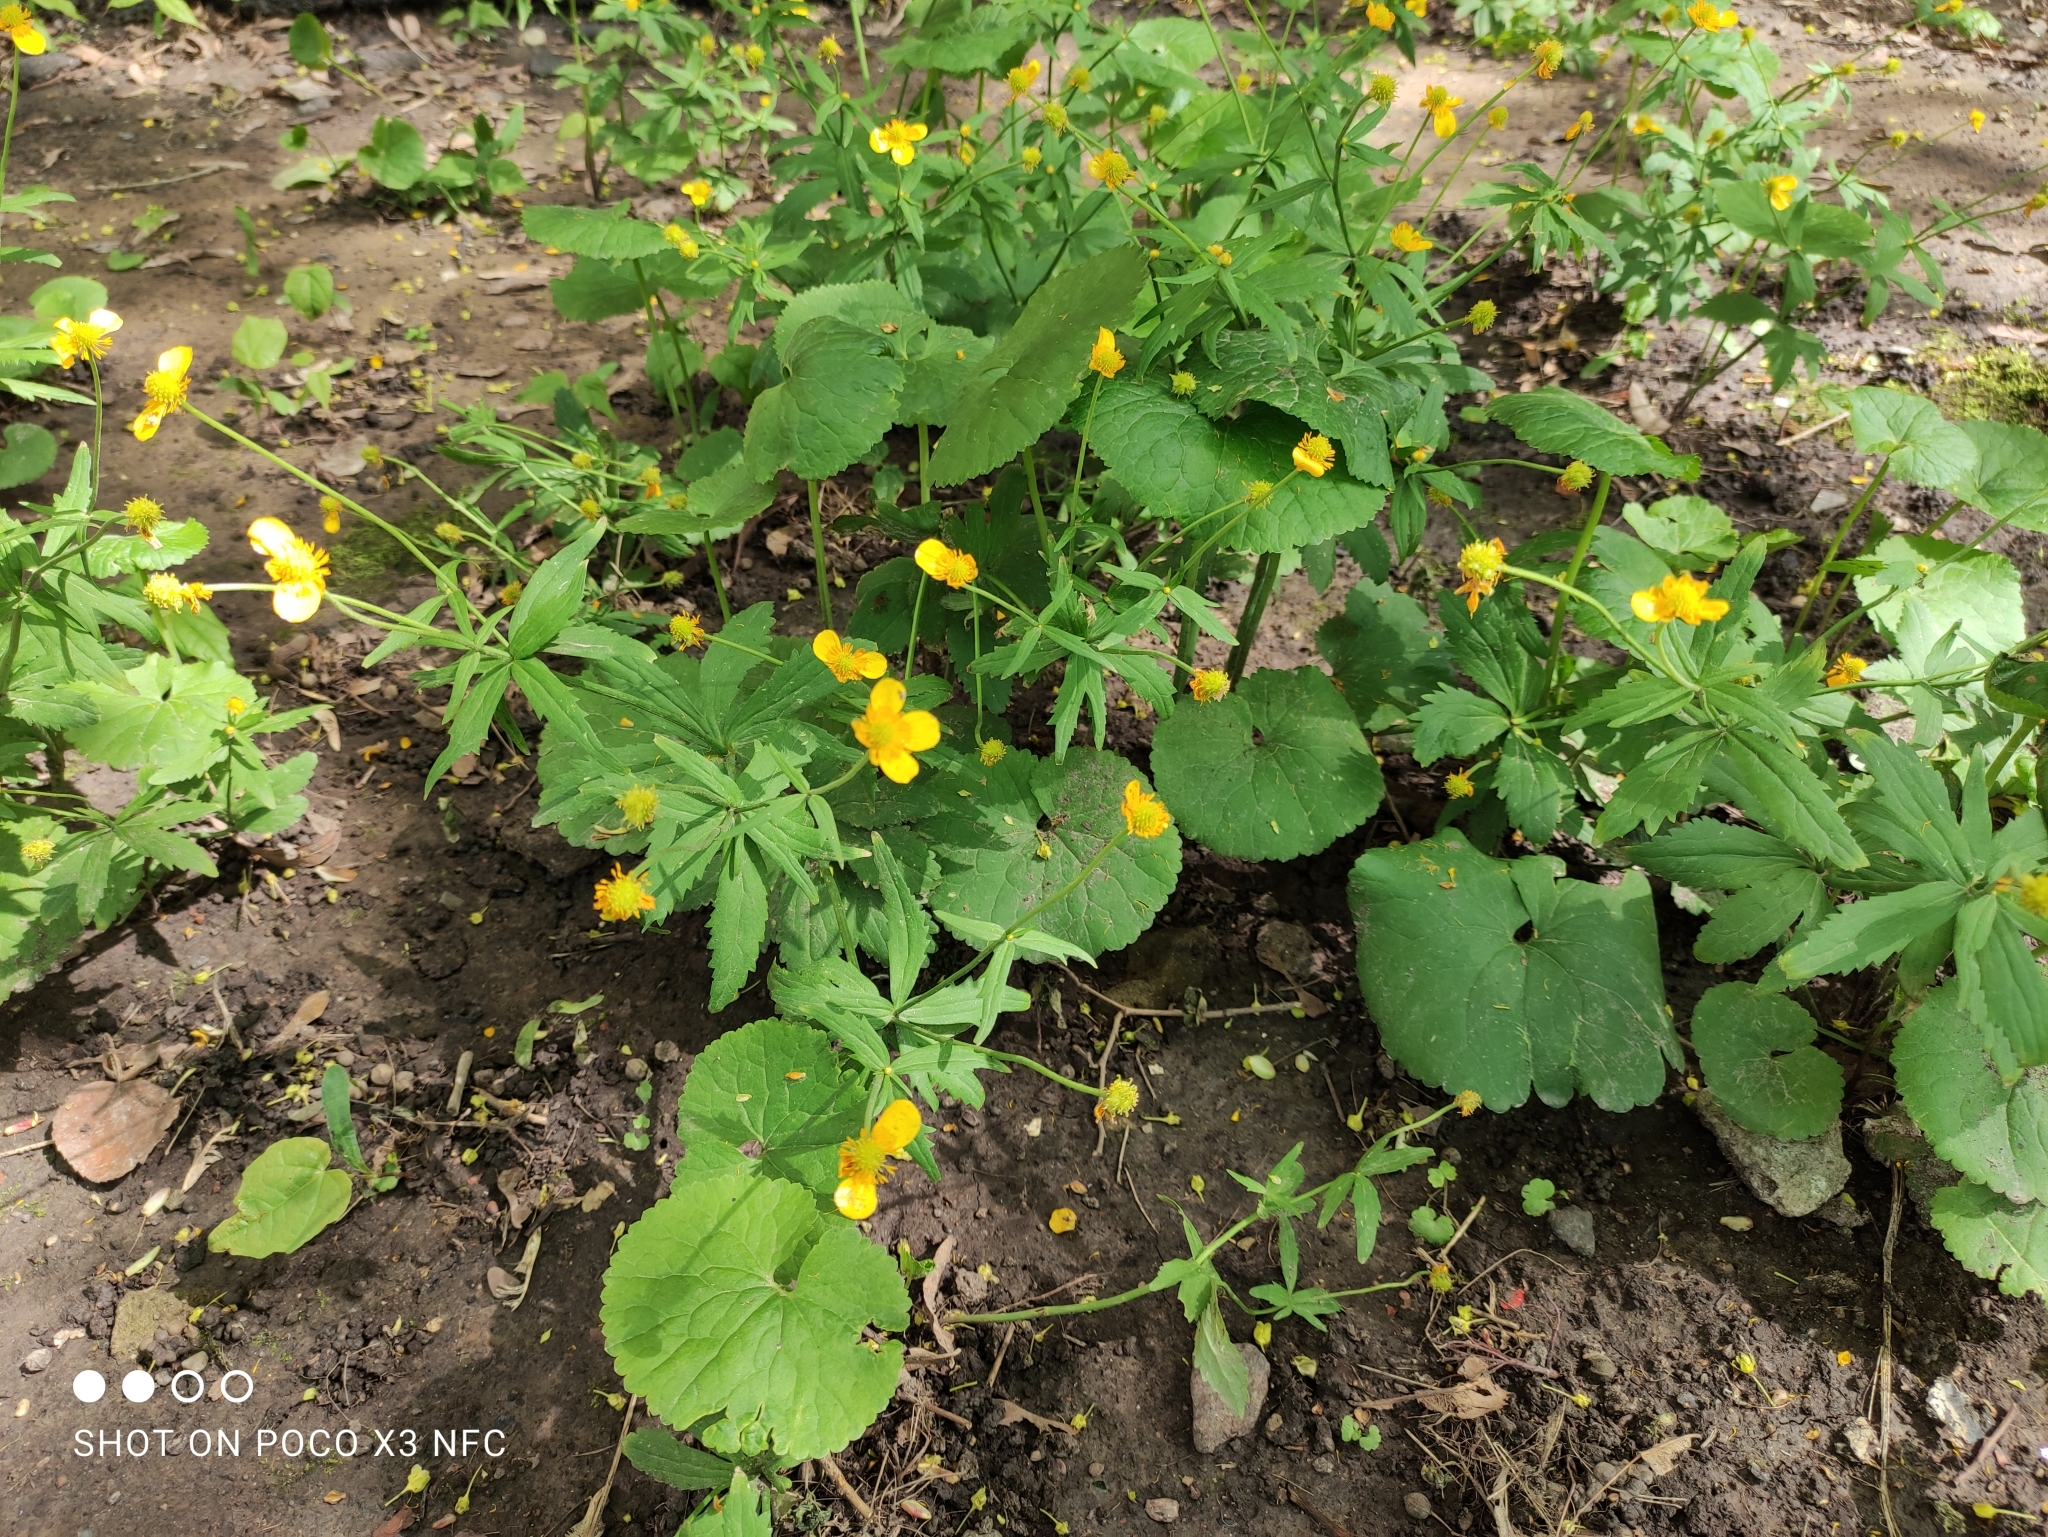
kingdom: Plantae
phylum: Tracheophyta
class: Magnoliopsida
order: Ranunculales
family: Ranunculaceae
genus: Ranunculus
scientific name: Ranunculus cassubicus
